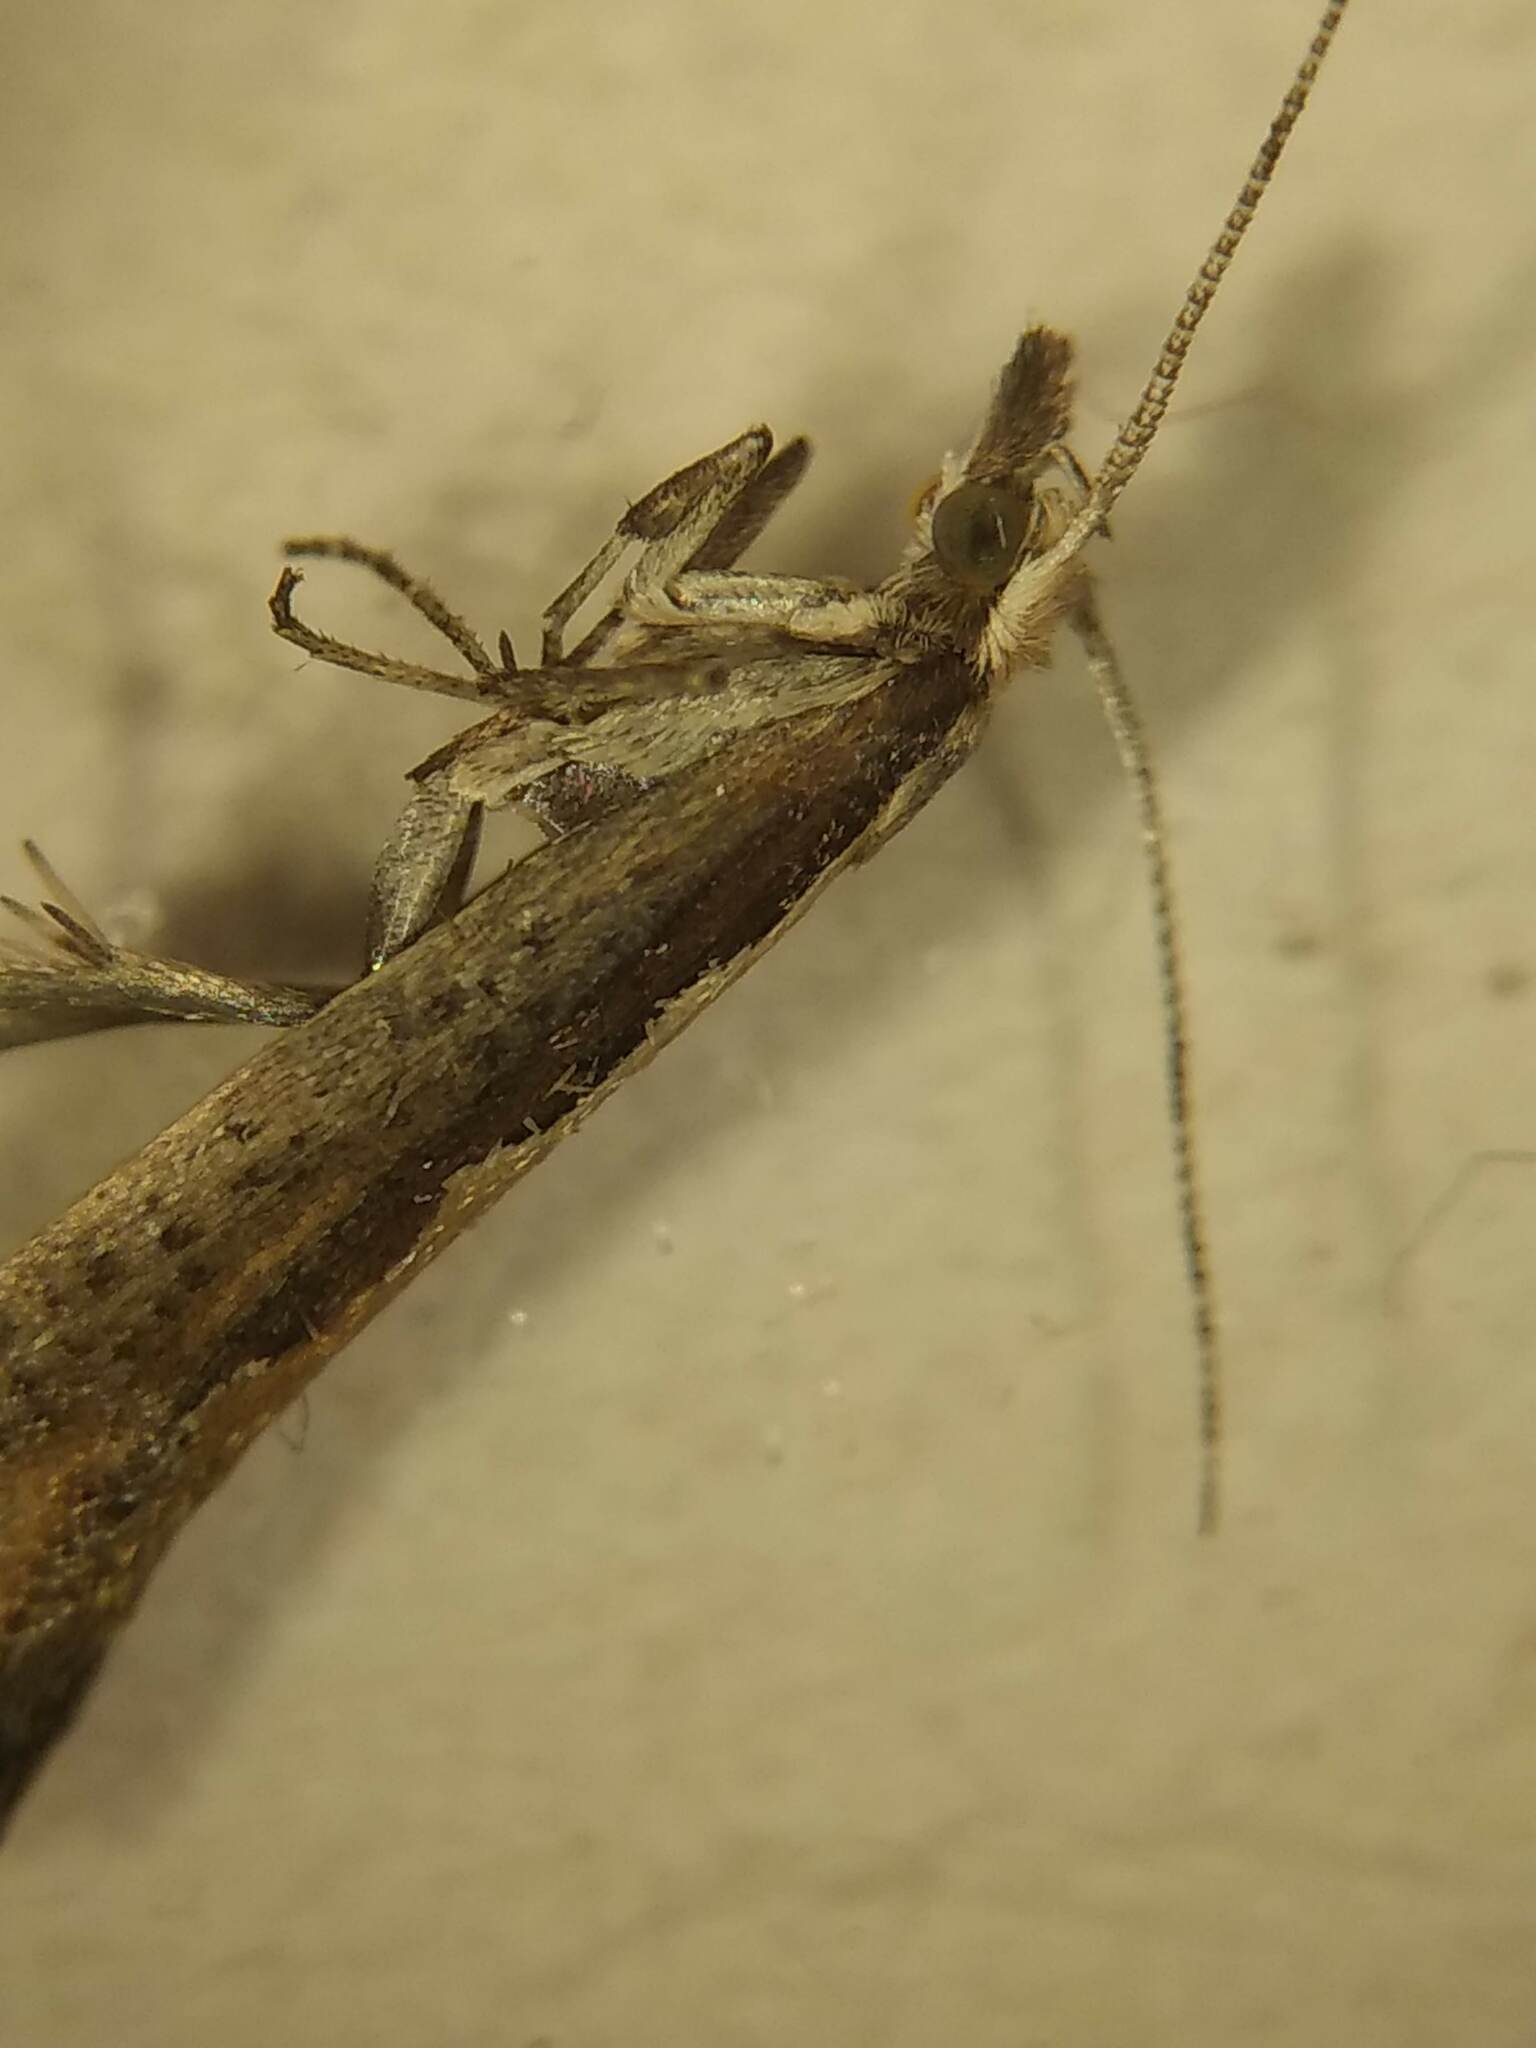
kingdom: Animalia
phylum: Arthropoda
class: Insecta
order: Lepidoptera
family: Plutellidae
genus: Plutella
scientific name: Plutella xylostella
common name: Diamond-back moth
